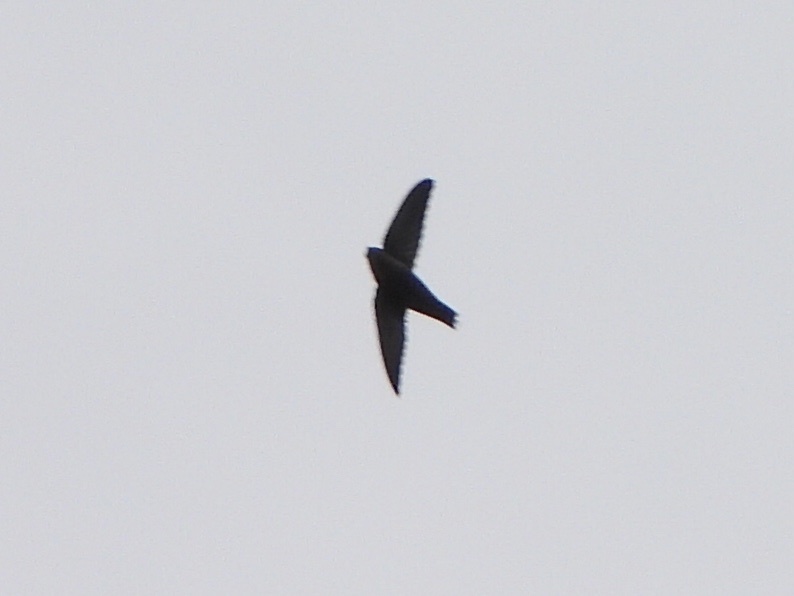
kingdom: Animalia
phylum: Chordata
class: Aves
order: Apodiformes
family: Apodidae
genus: Chaetura
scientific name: Chaetura vauxi
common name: Vaux's swift
